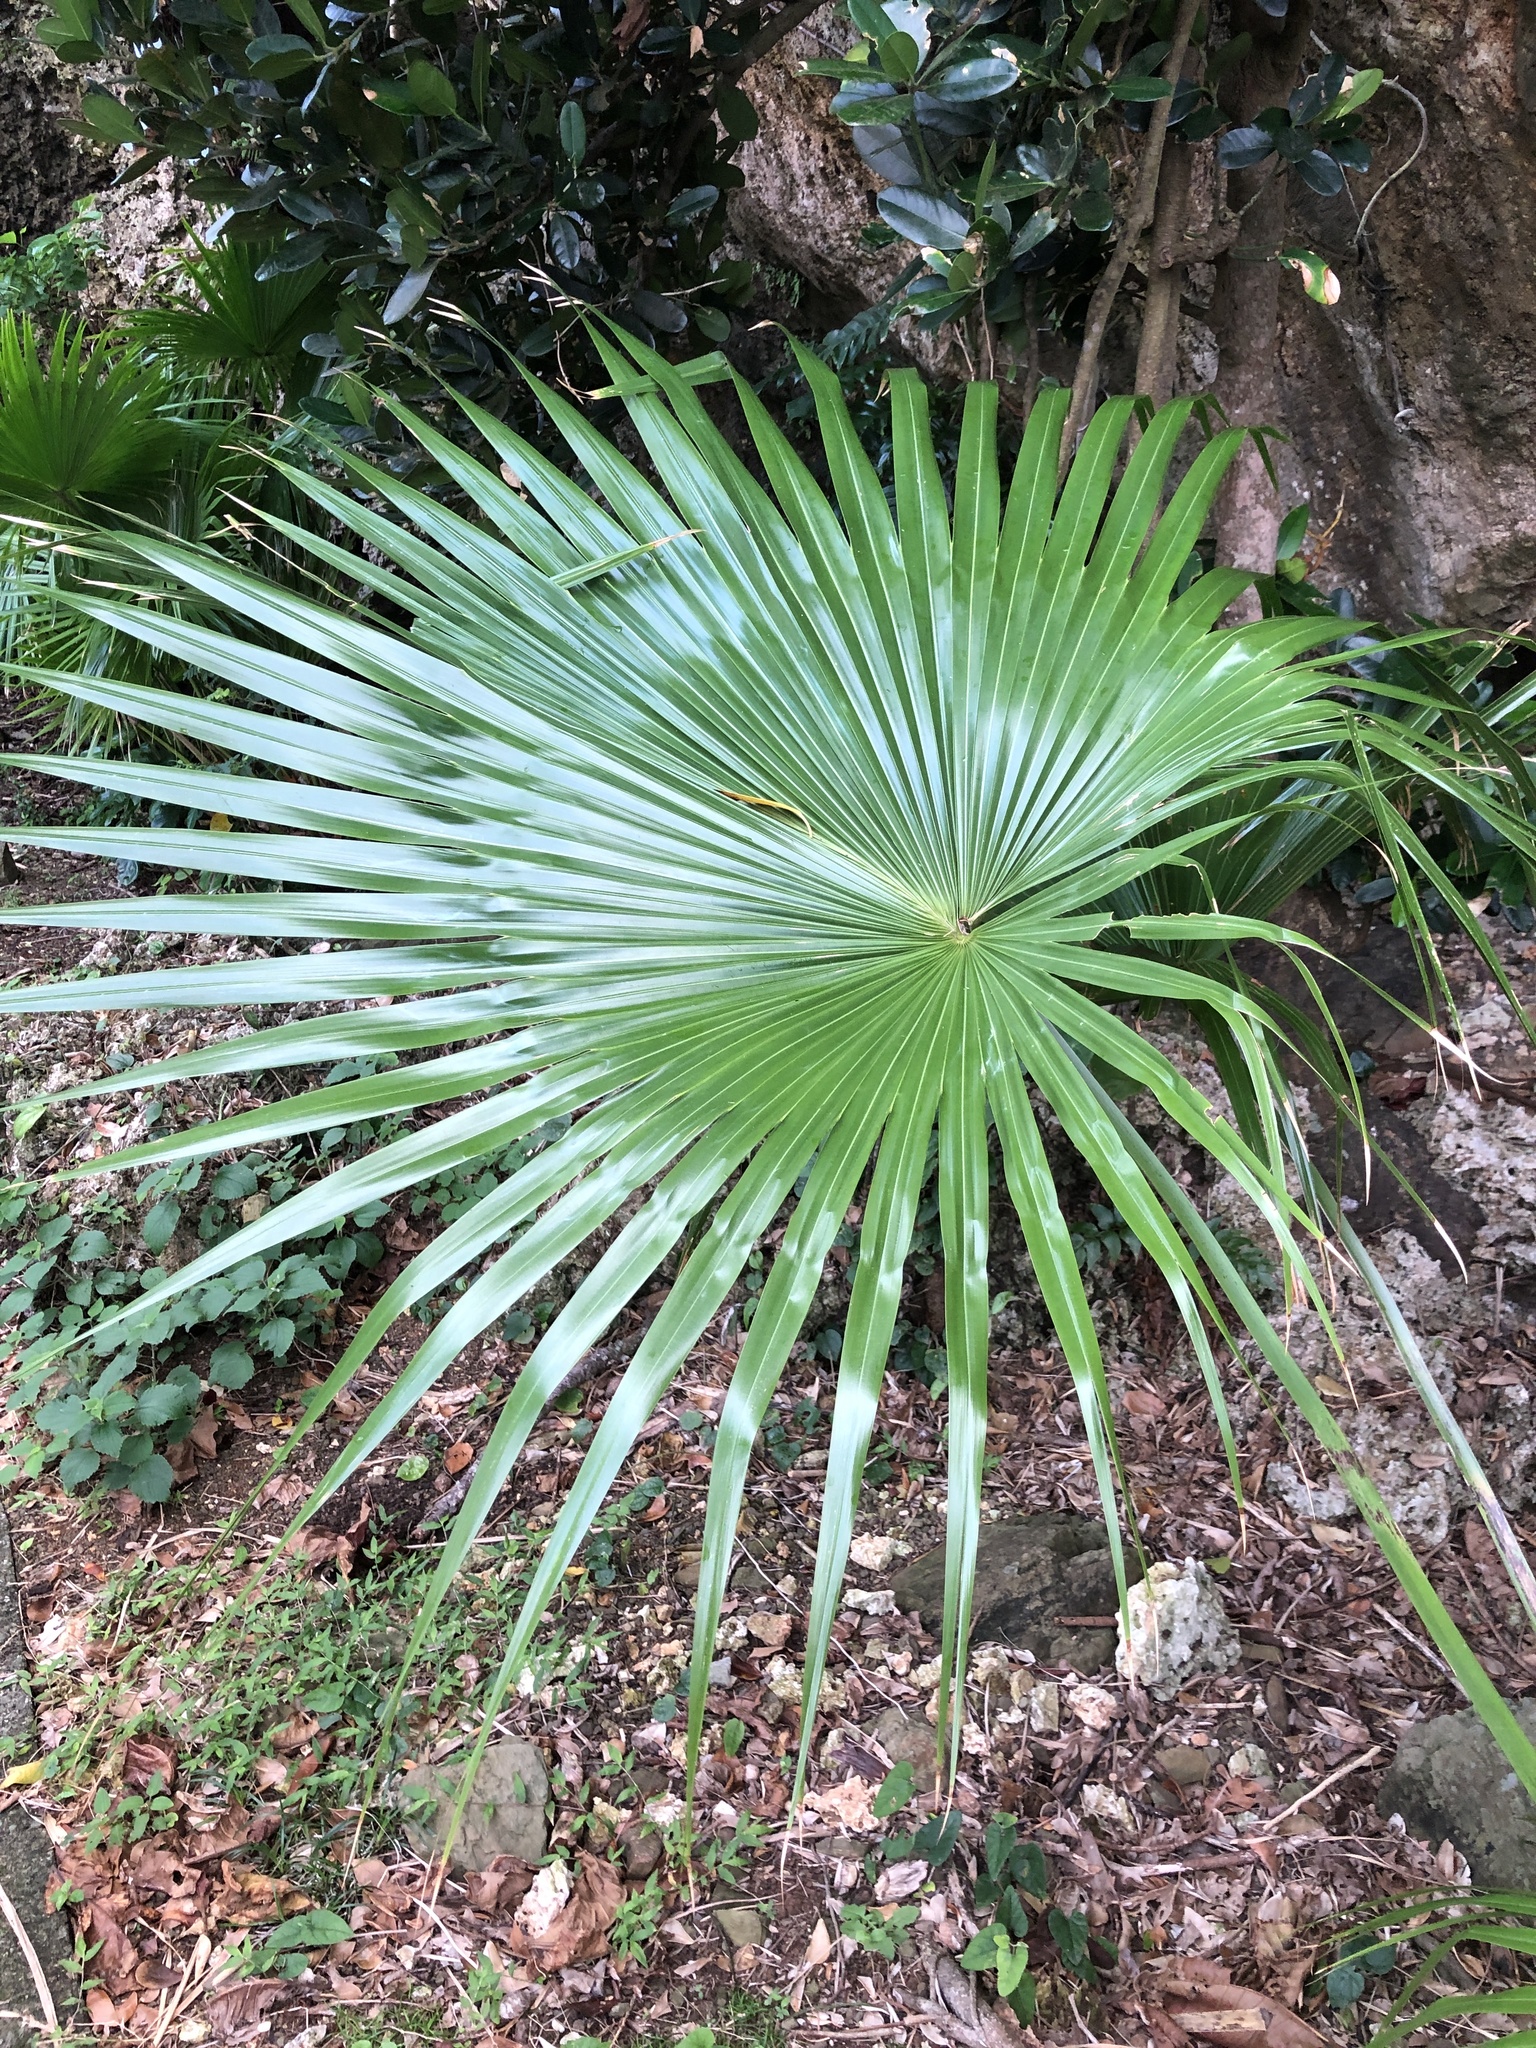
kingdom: Plantae
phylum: Tracheophyta
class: Liliopsida
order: Arecales
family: Arecaceae
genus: Livistona
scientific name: Livistona chinensis
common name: Fountain palm
